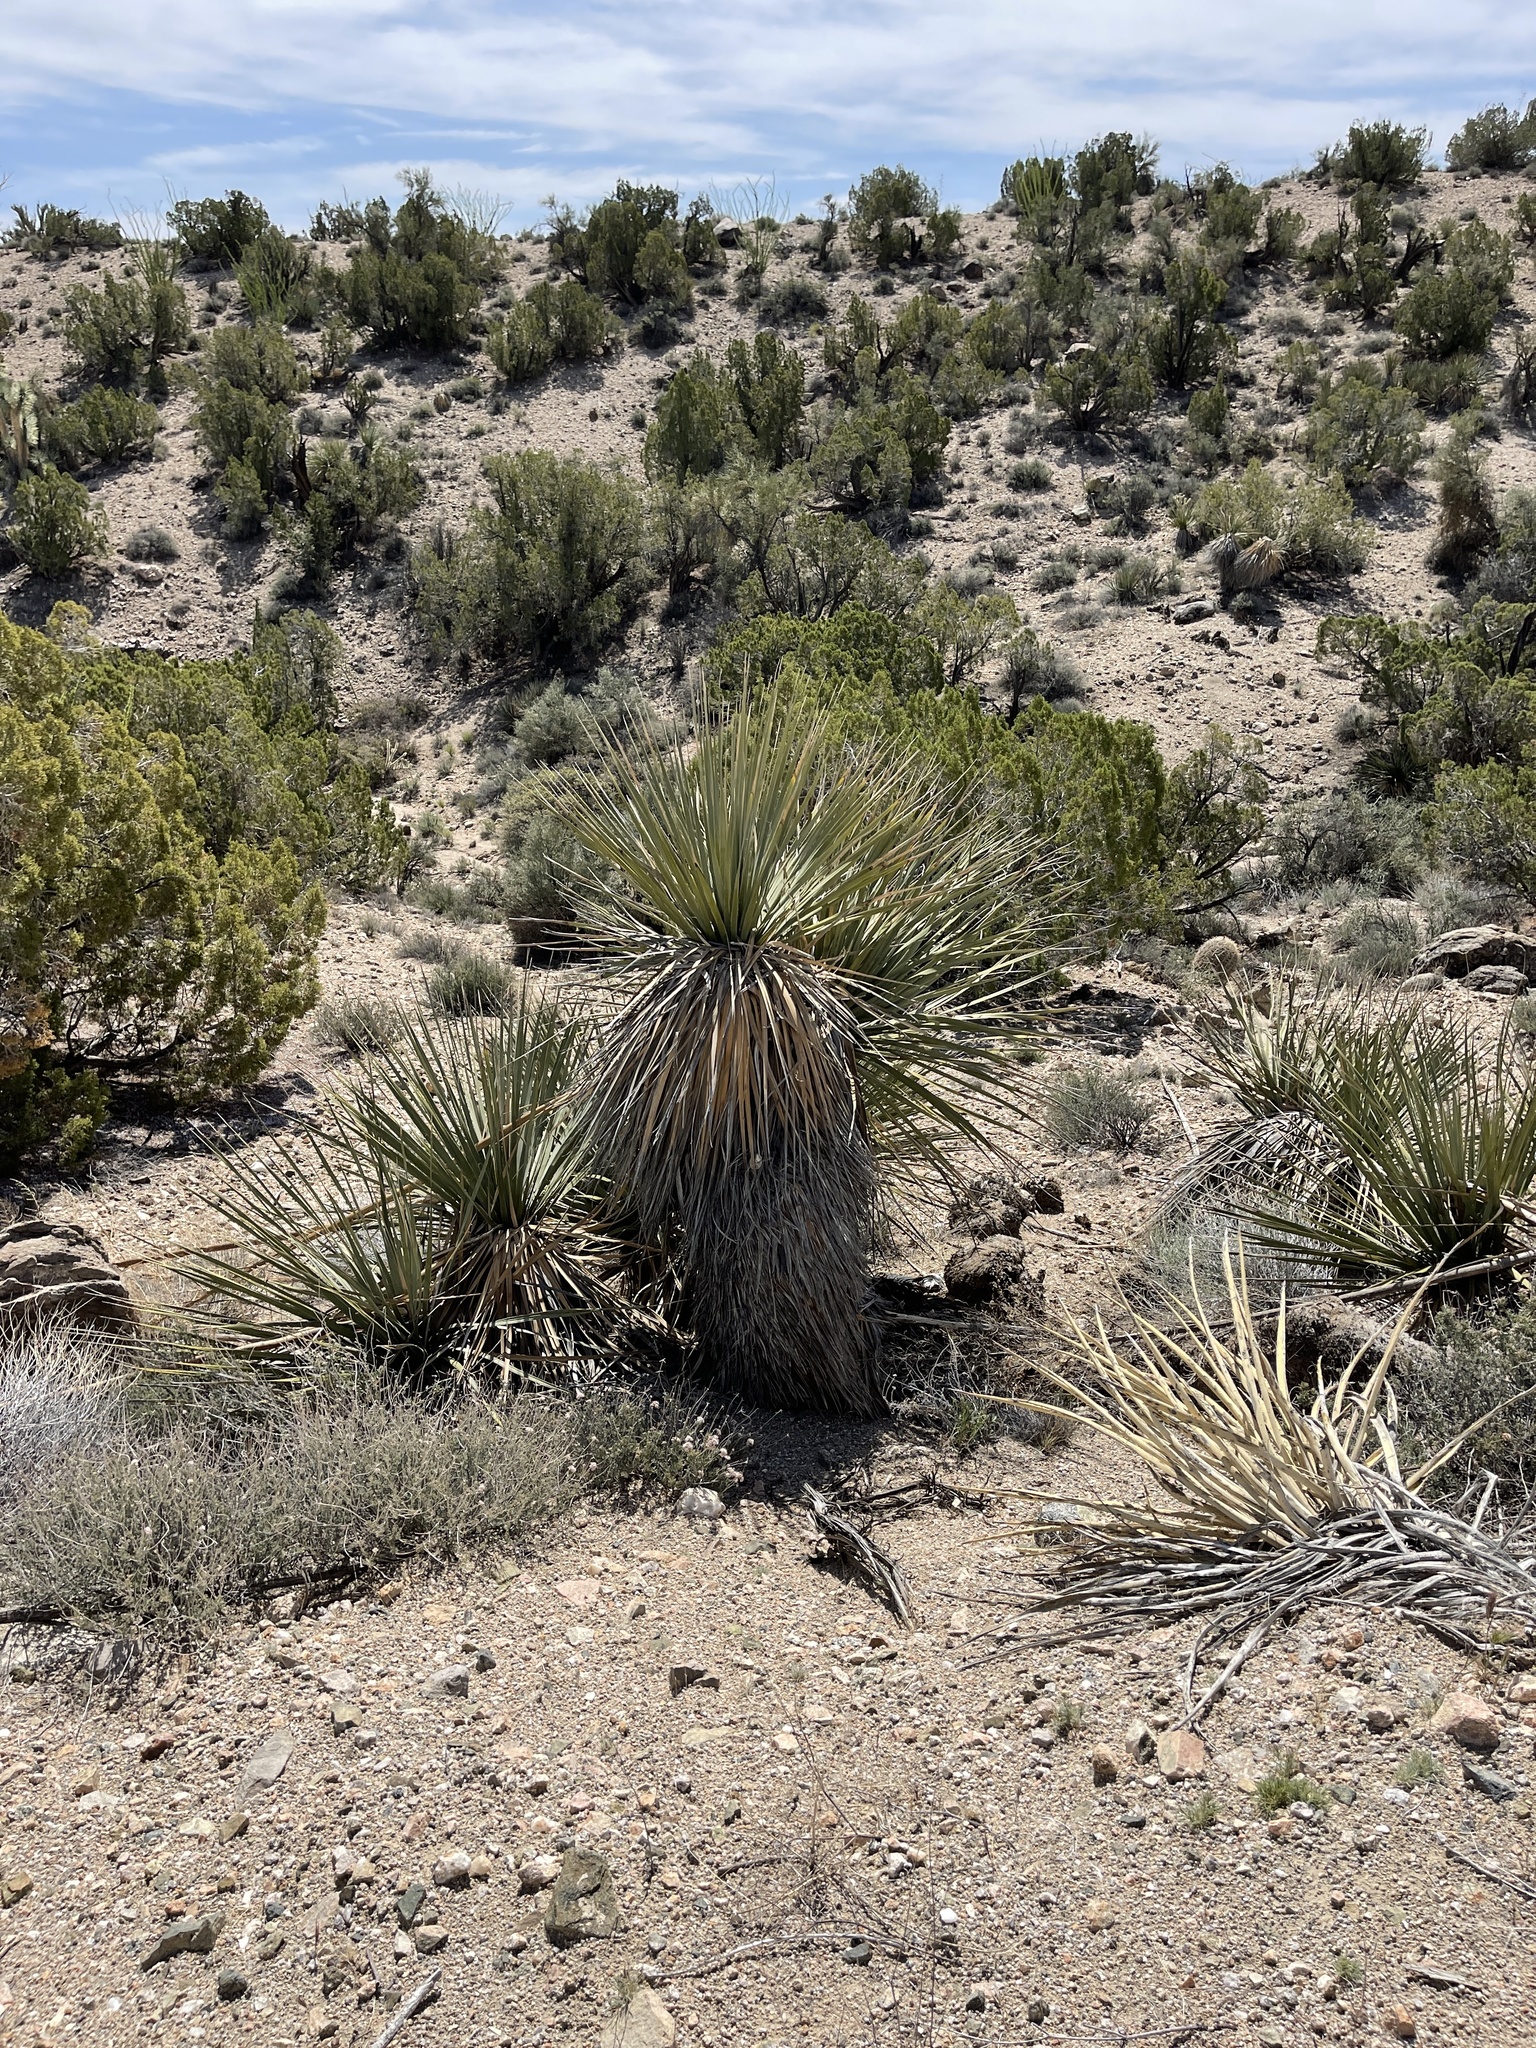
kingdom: Plantae
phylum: Tracheophyta
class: Liliopsida
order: Asparagales
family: Asparagaceae
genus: Yucca
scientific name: Yucca brevifolia
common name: Joshua tree
